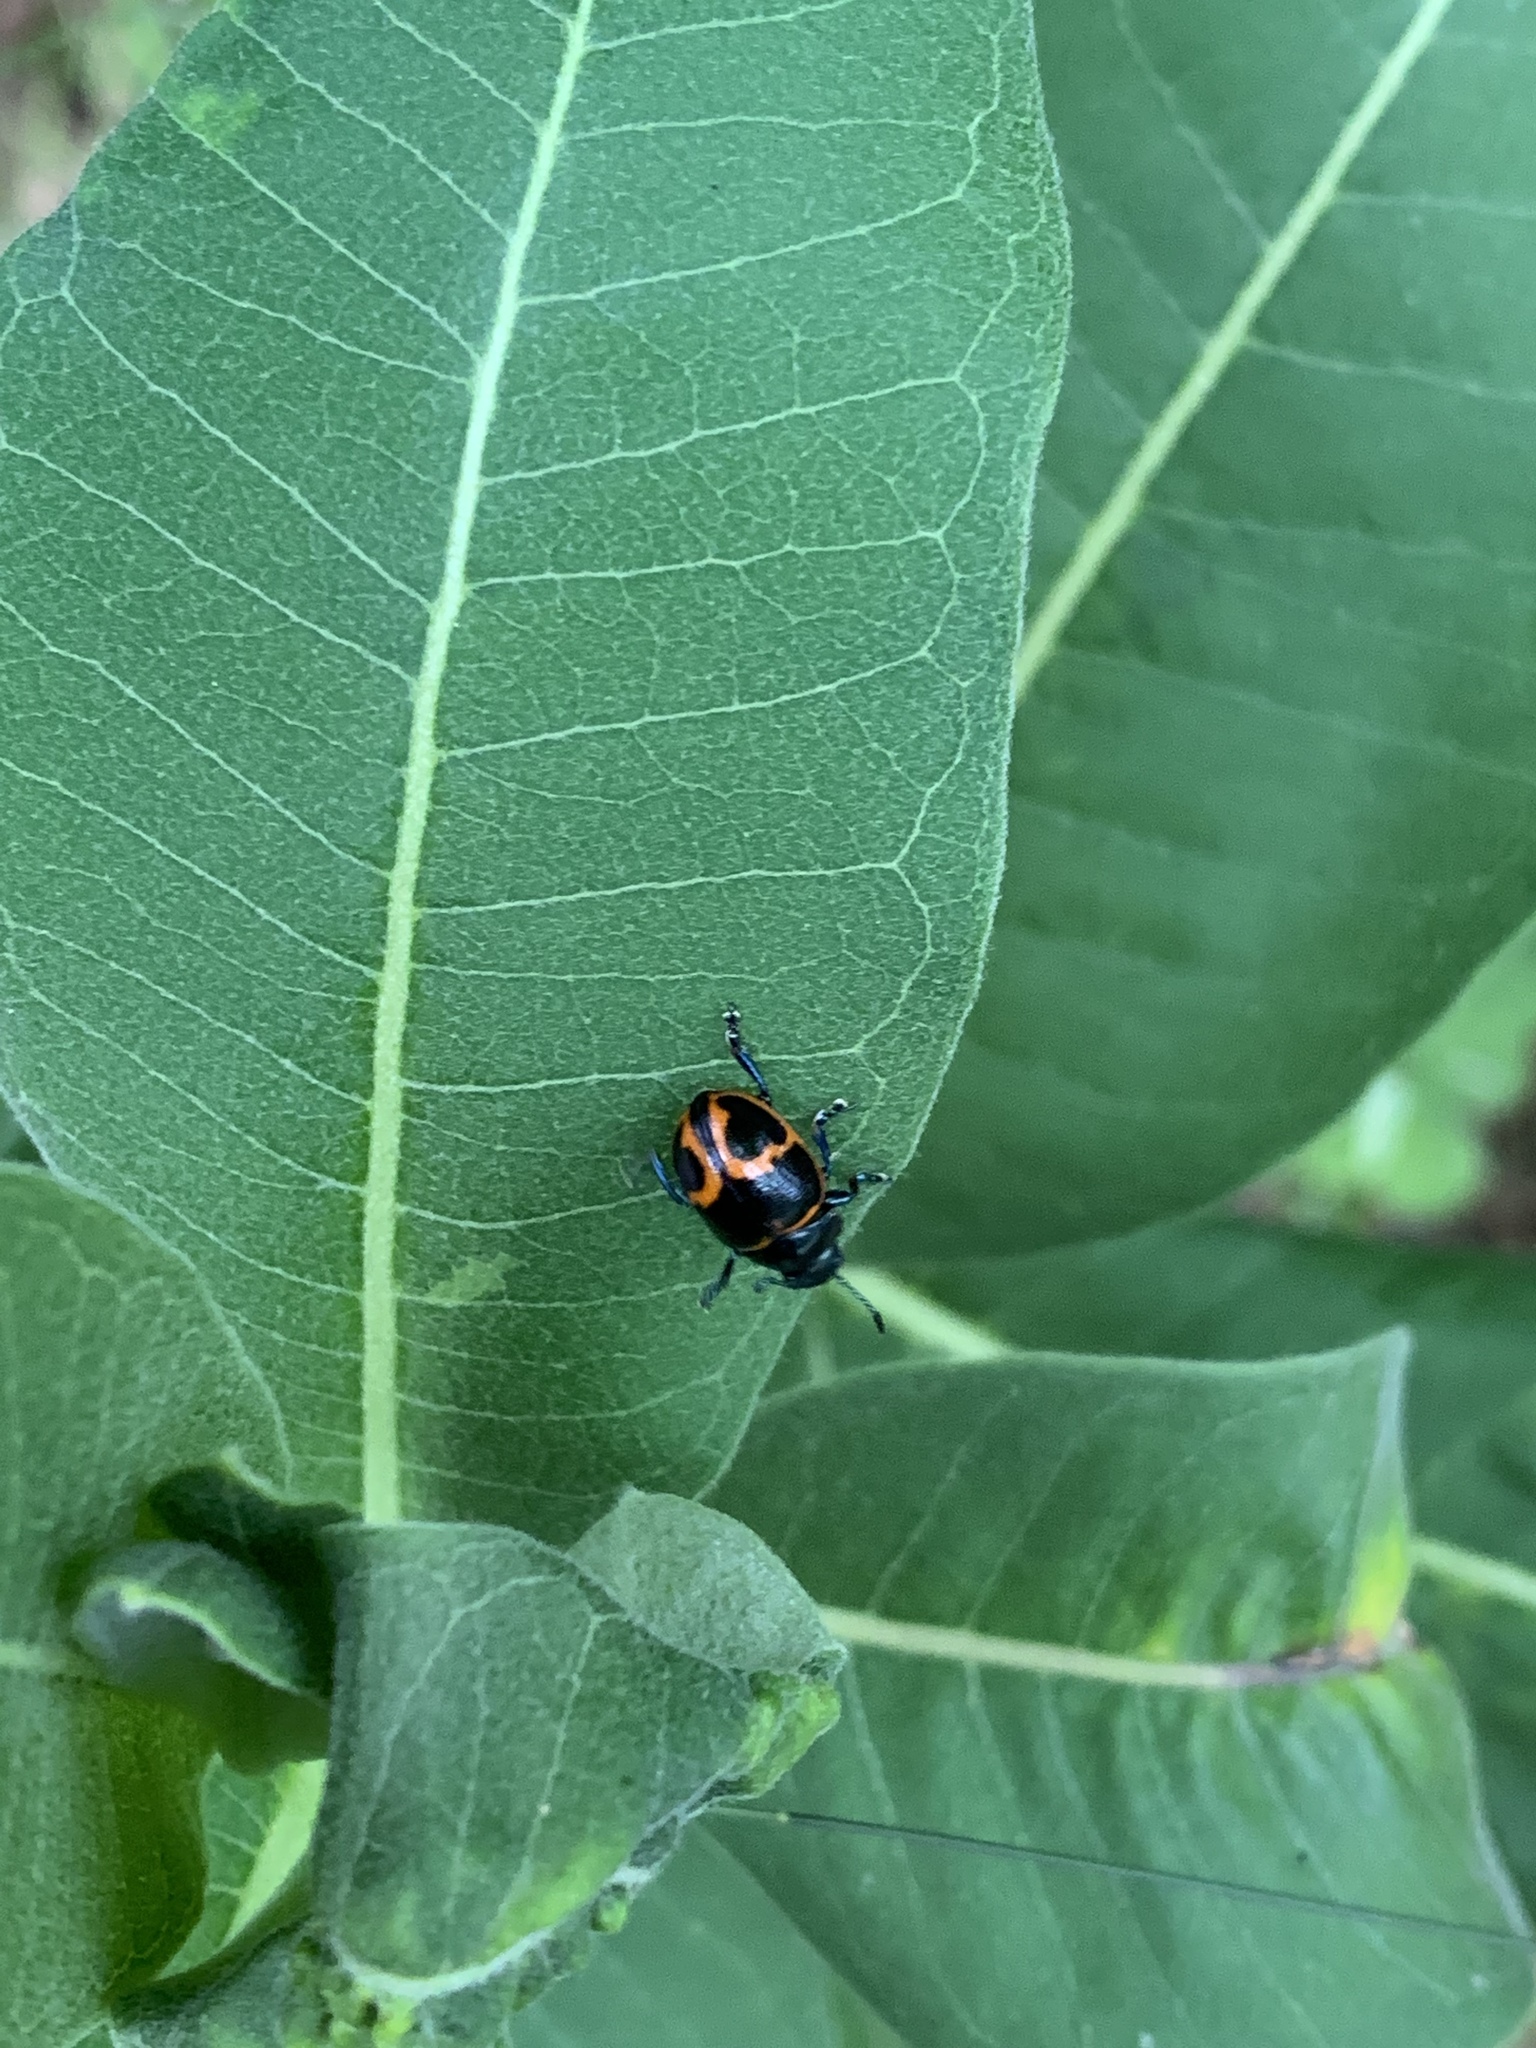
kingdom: Animalia
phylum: Arthropoda
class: Insecta
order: Coleoptera
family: Chrysomelidae
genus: Labidomera
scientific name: Labidomera clivicollis
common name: Swamp milkweed leaf beetle
